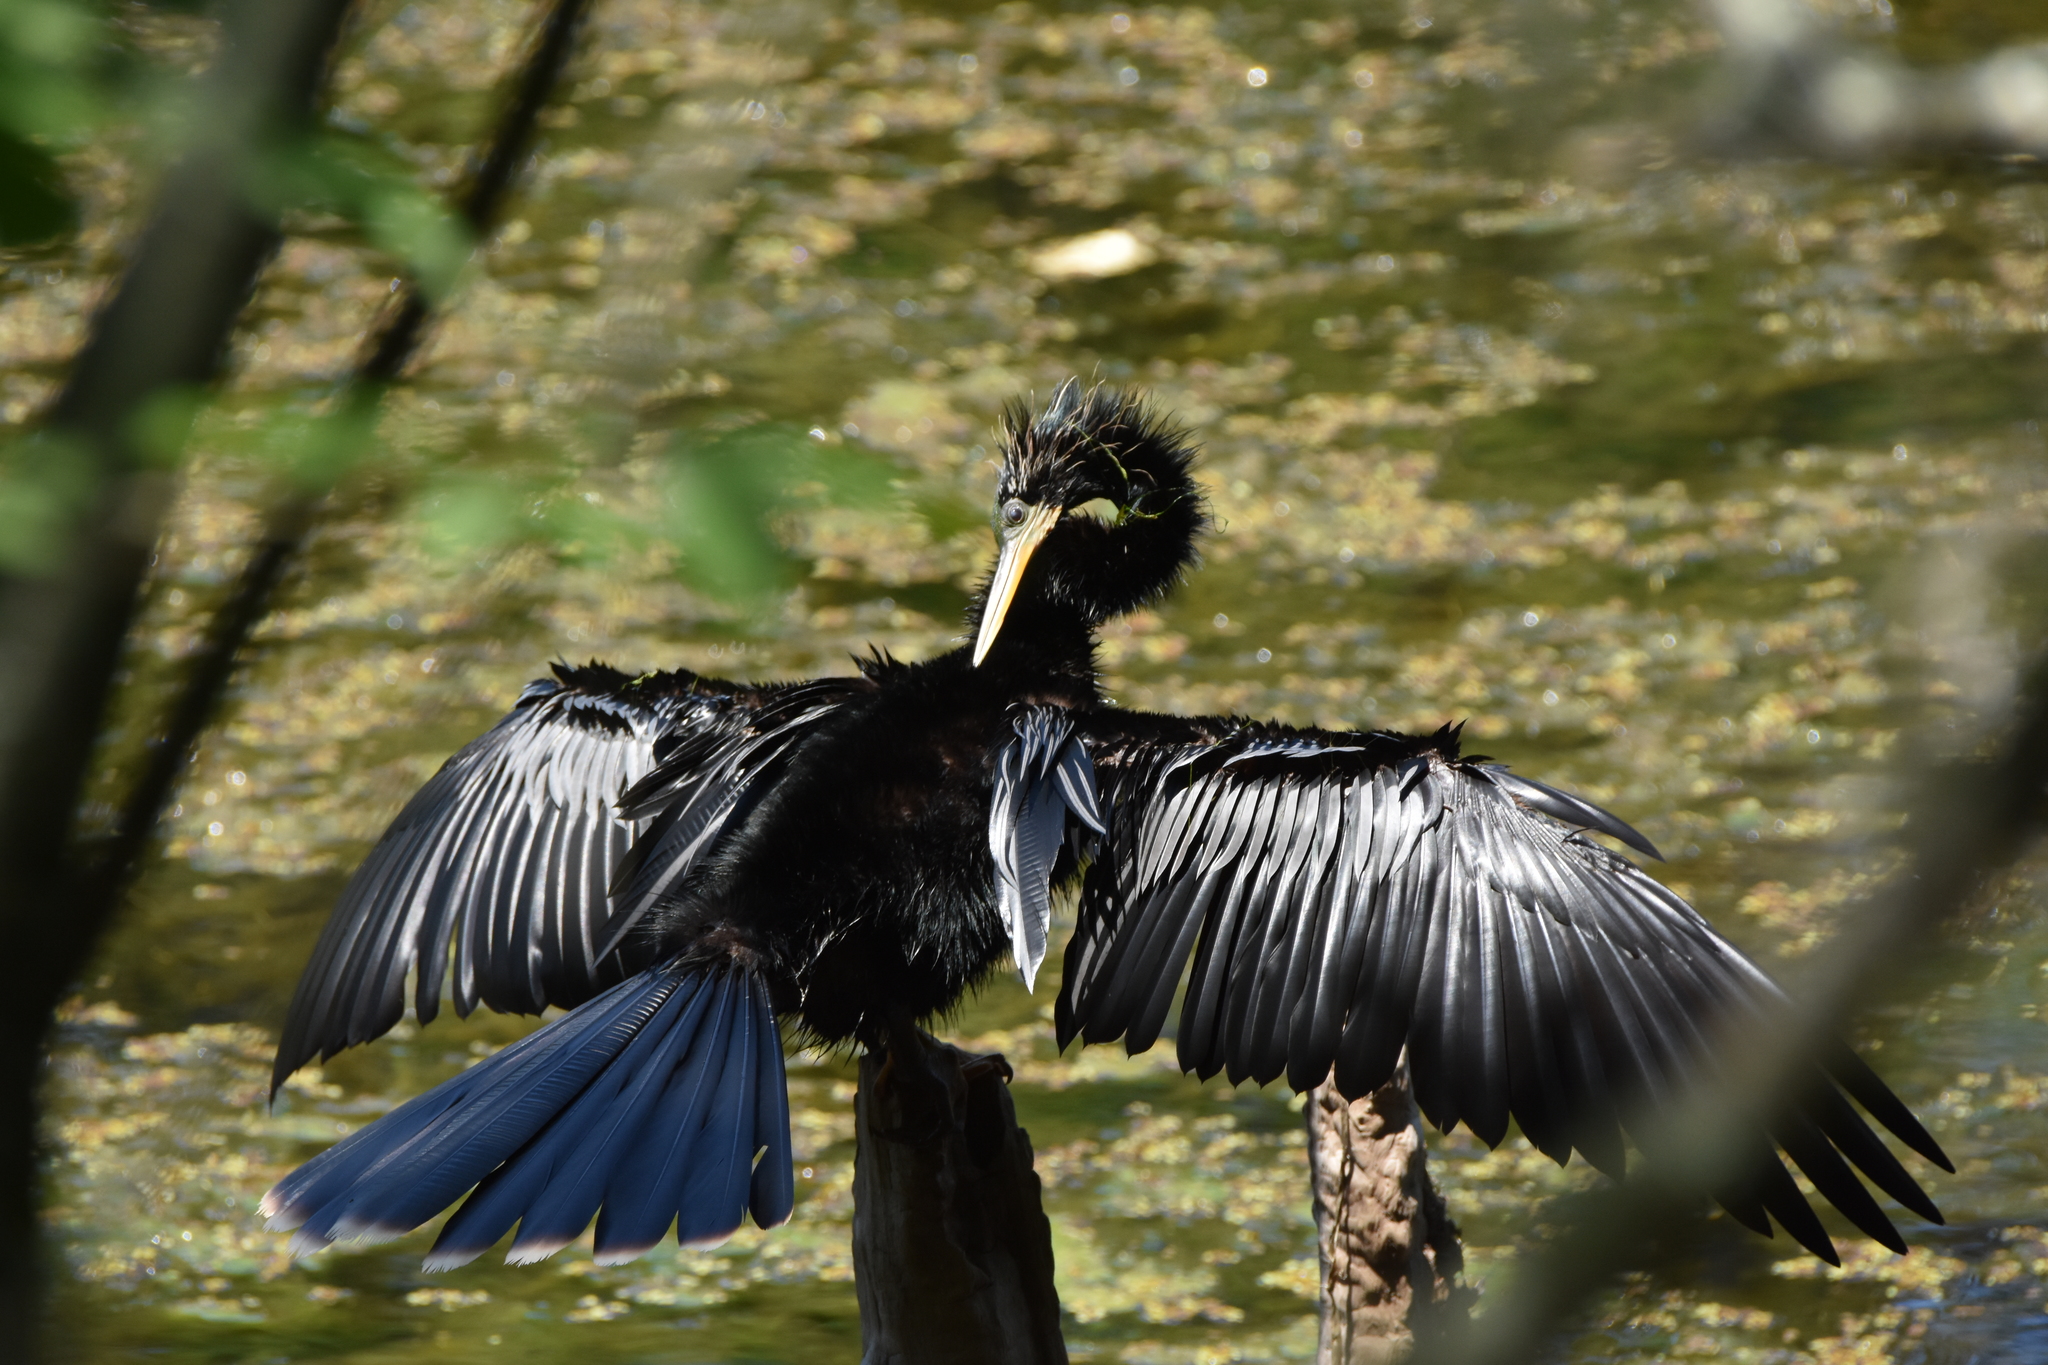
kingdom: Animalia
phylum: Chordata
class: Aves
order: Suliformes
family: Anhingidae
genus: Anhinga
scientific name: Anhinga anhinga
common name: Anhinga
